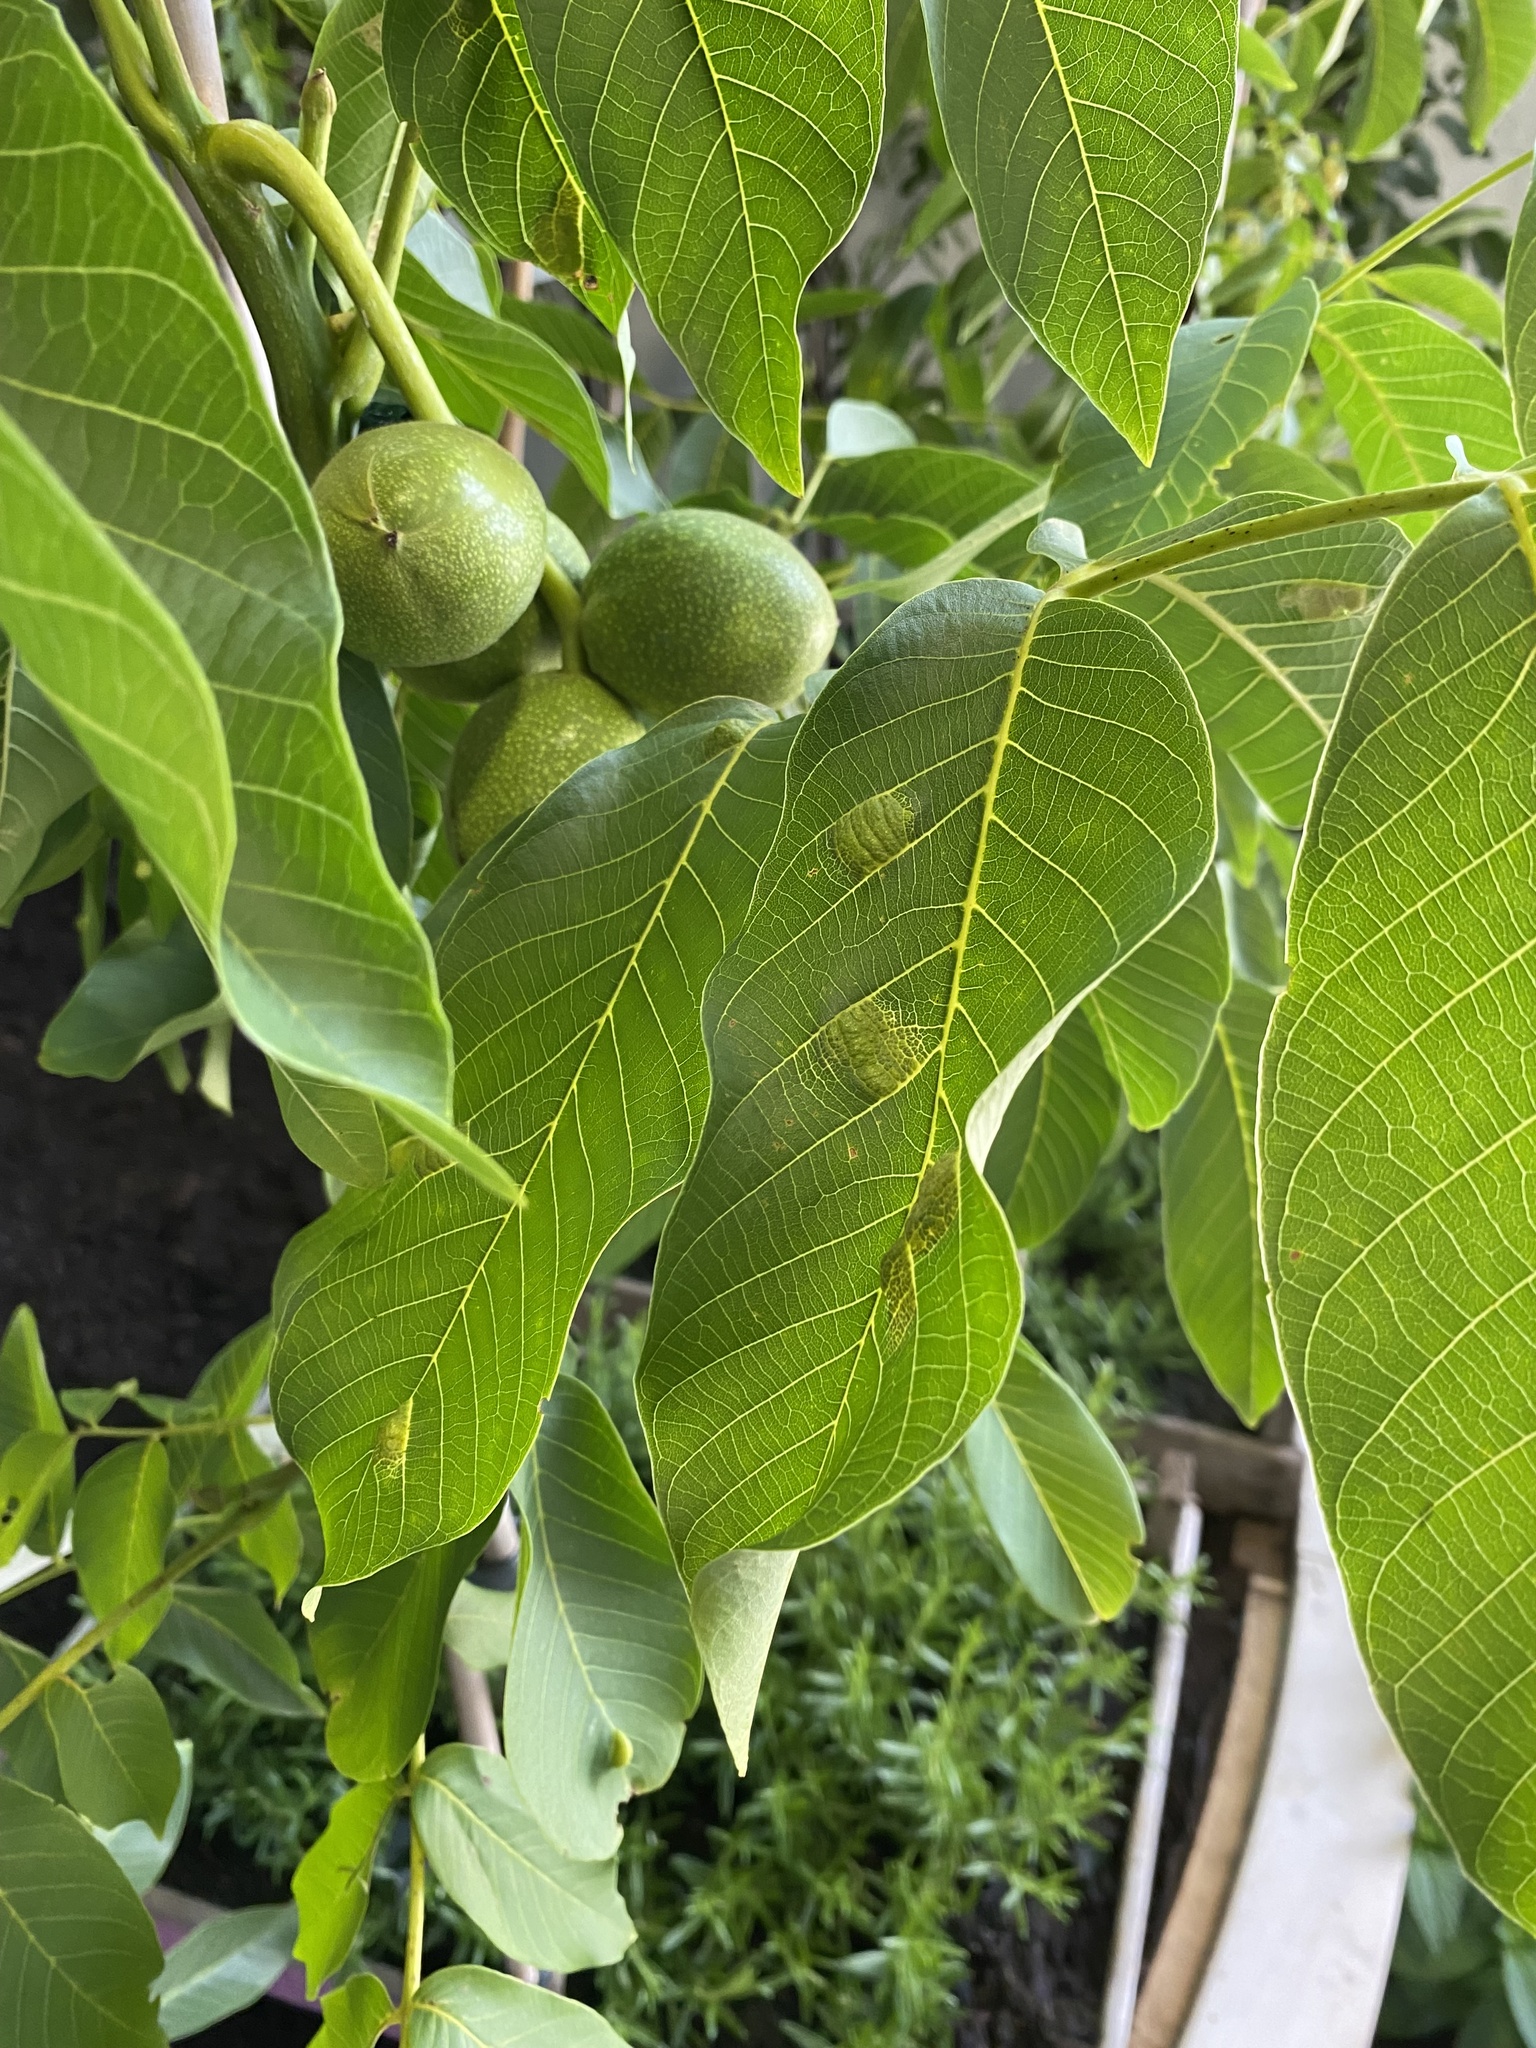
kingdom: Animalia
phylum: Arthropoda
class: Arachnida
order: Trombidiformes
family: Eriophyidae
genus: Aceria
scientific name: Aceria erinea
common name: Persian walnut erineum mite
